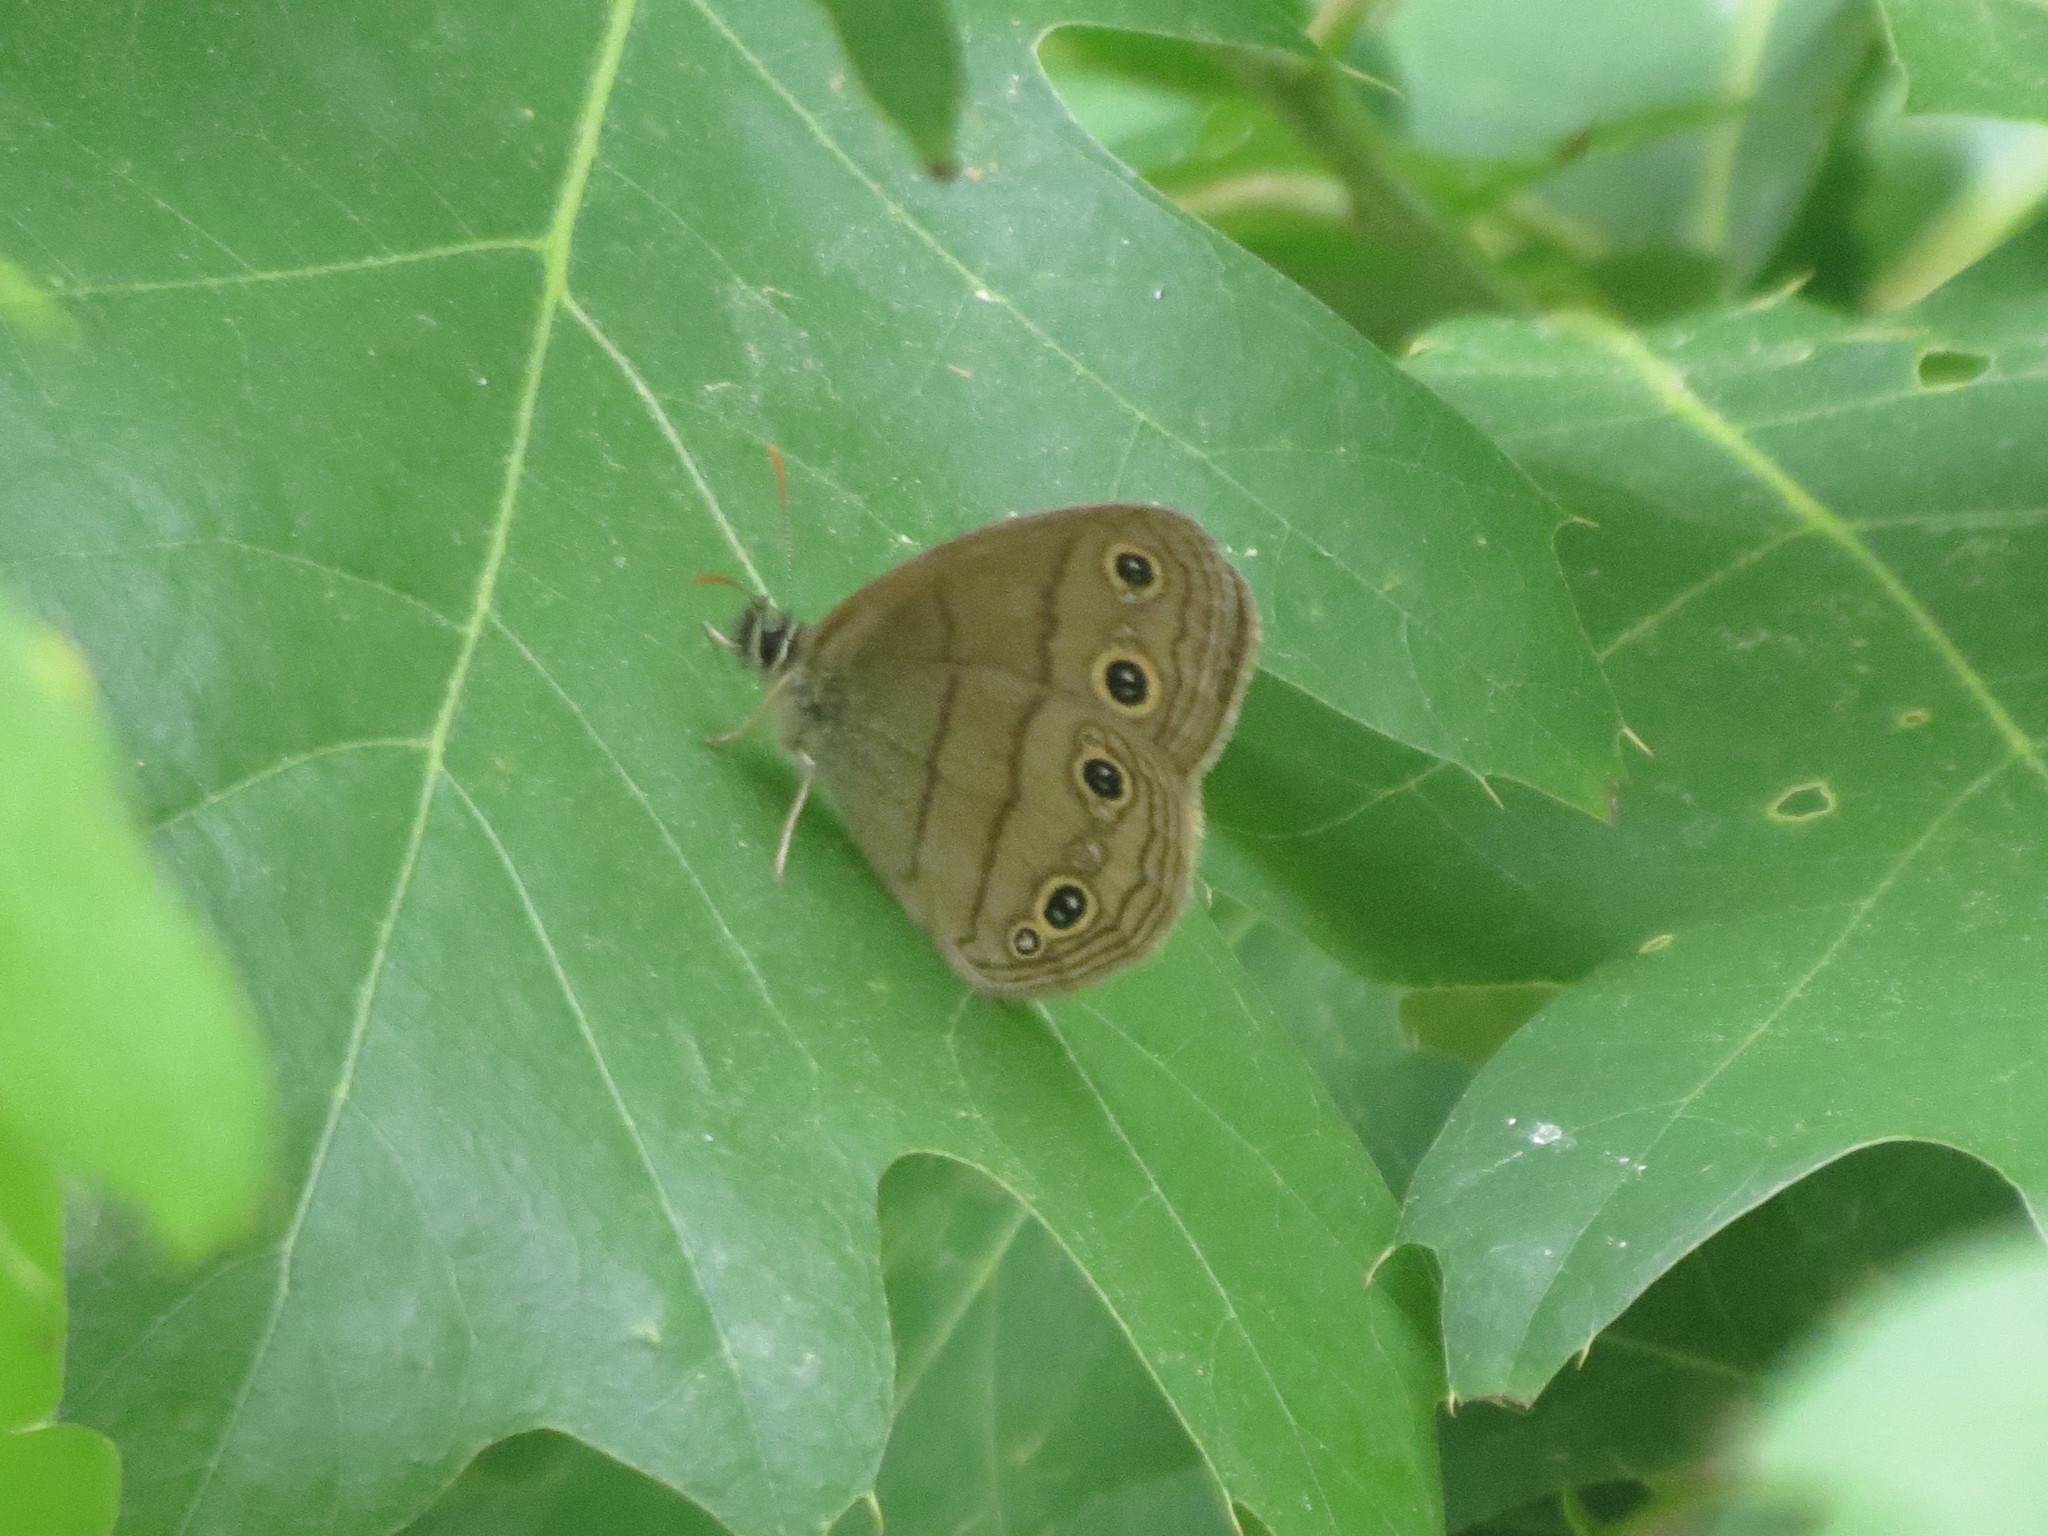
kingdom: Animalia
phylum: Arthropoda
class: Insecta
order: Lepidoptera
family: Nymphalidae
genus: Euptychia
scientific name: Euptychia cymela
